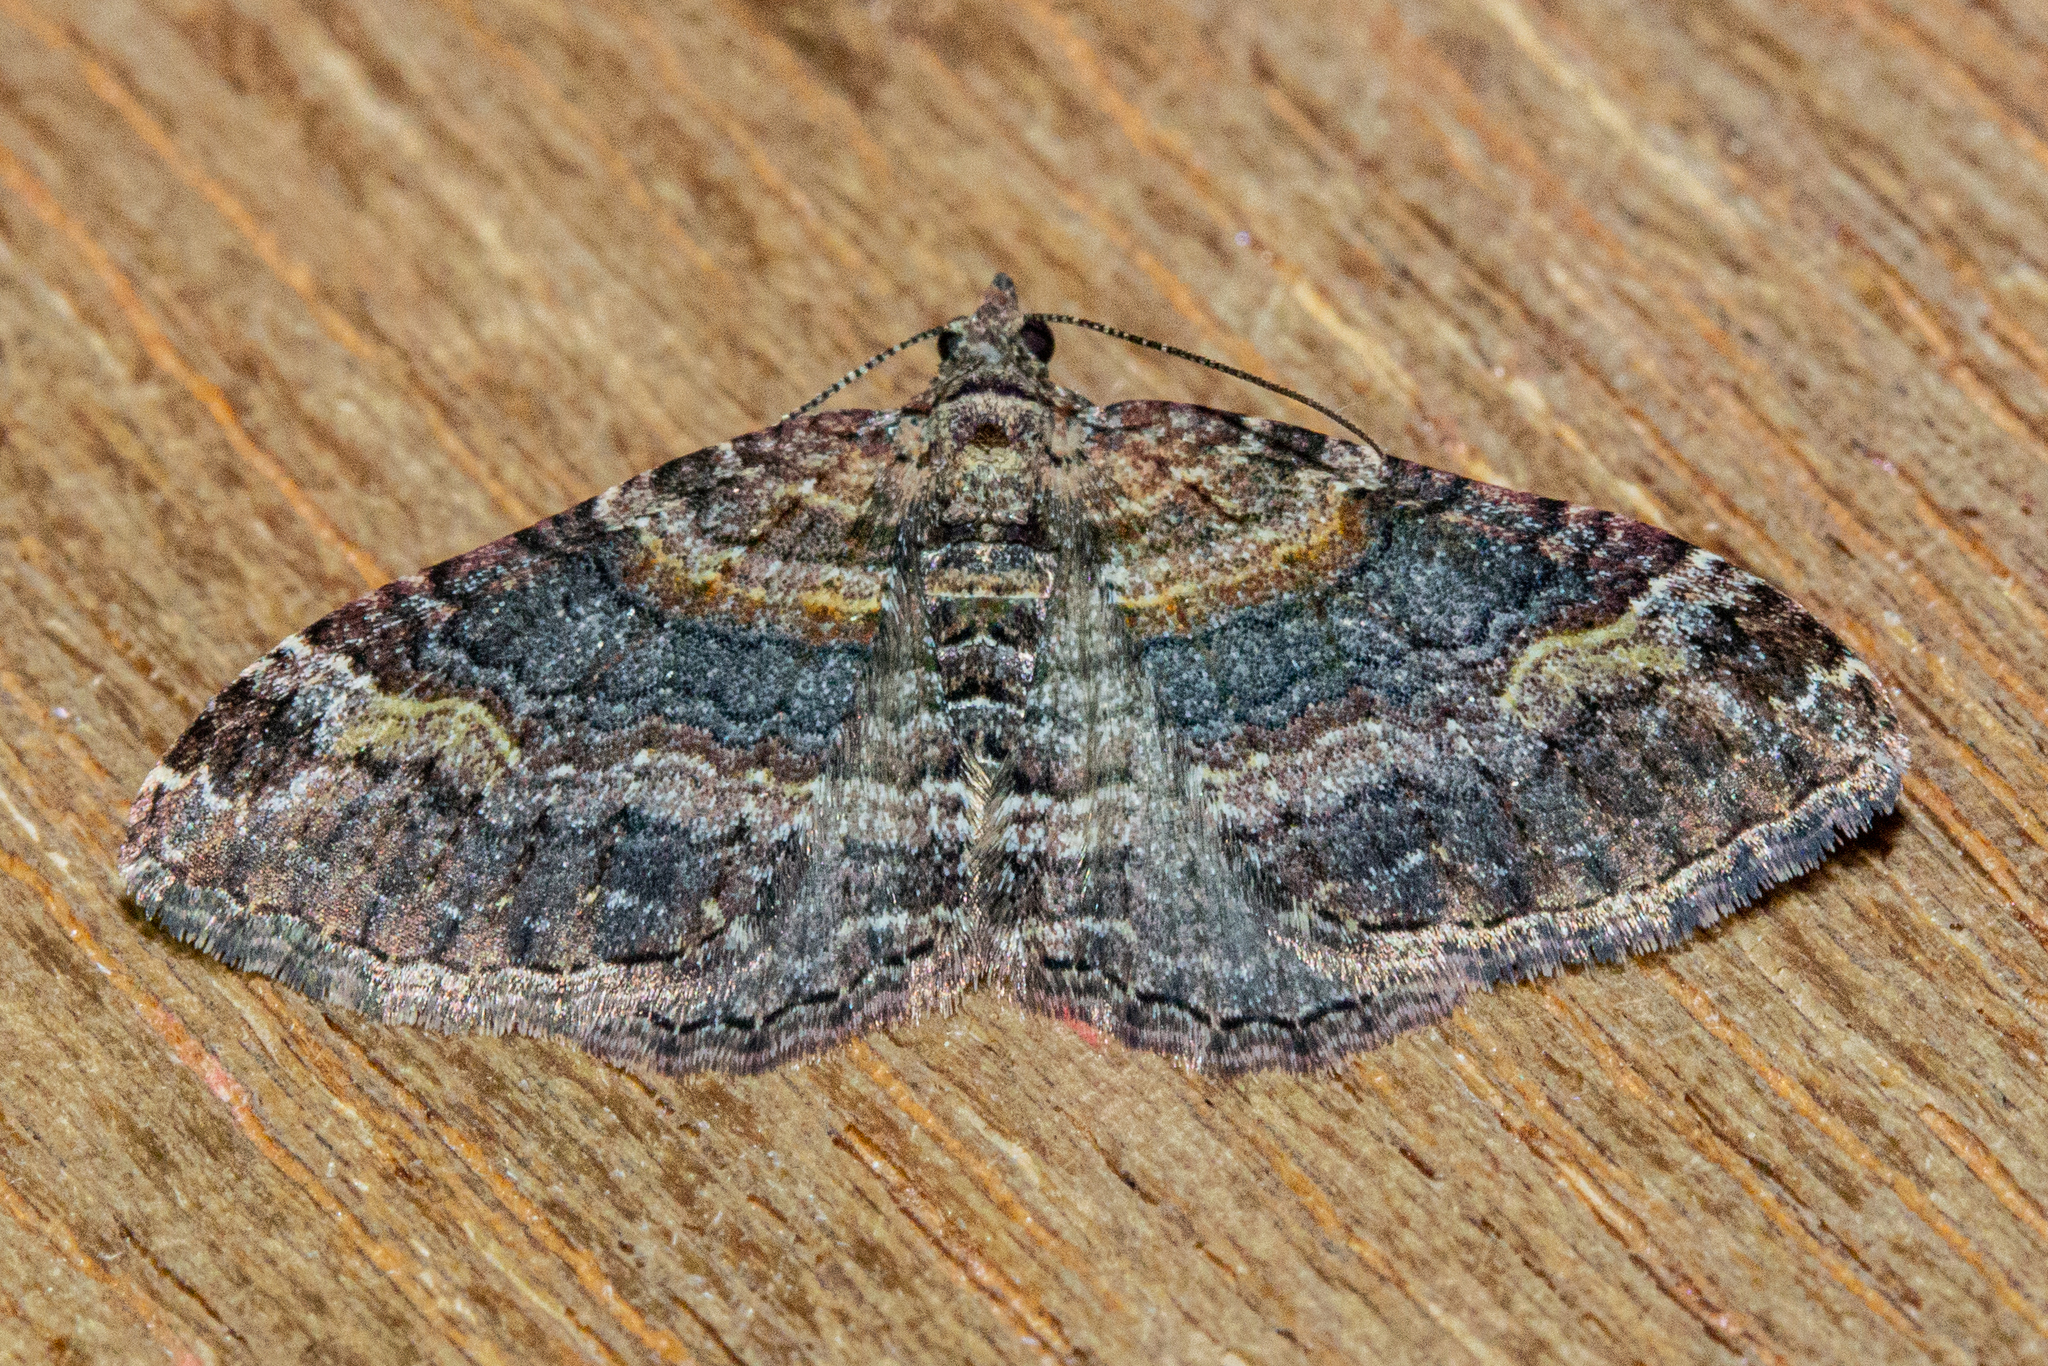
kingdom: Animalia
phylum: Arthropoda
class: Insecta
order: Lepidoptera
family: Geometridae
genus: Epyaxa
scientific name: Epyaxa lucidata
